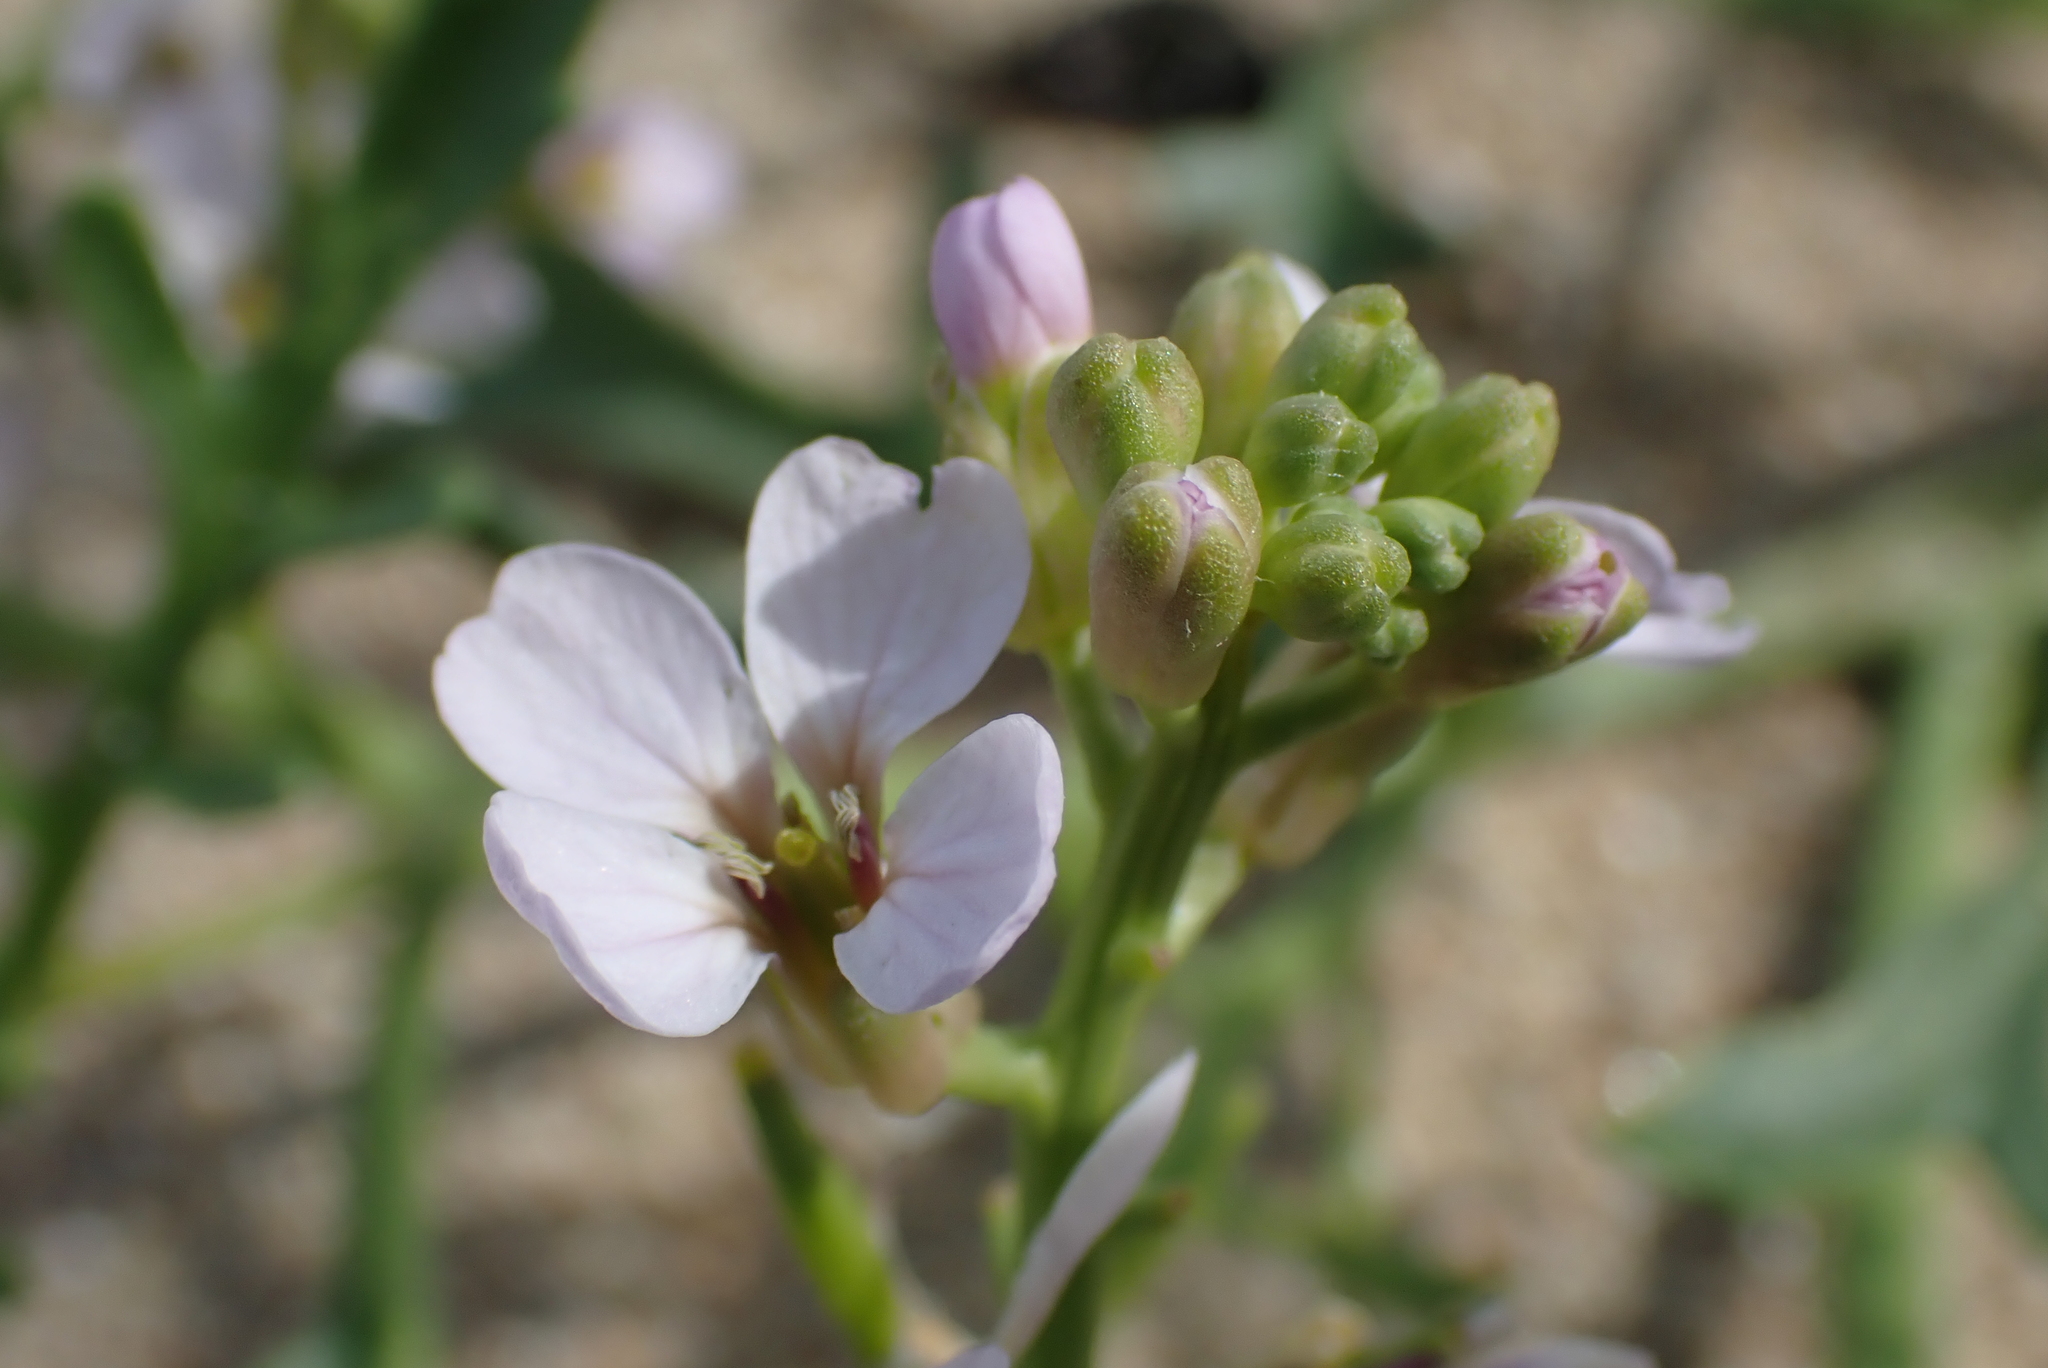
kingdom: Plantae
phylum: Tracheophyta
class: Magnoliopsida
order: Brassicales
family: Brassicaceae
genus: Cakile
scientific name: Cakile maritima
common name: Sea rocket
